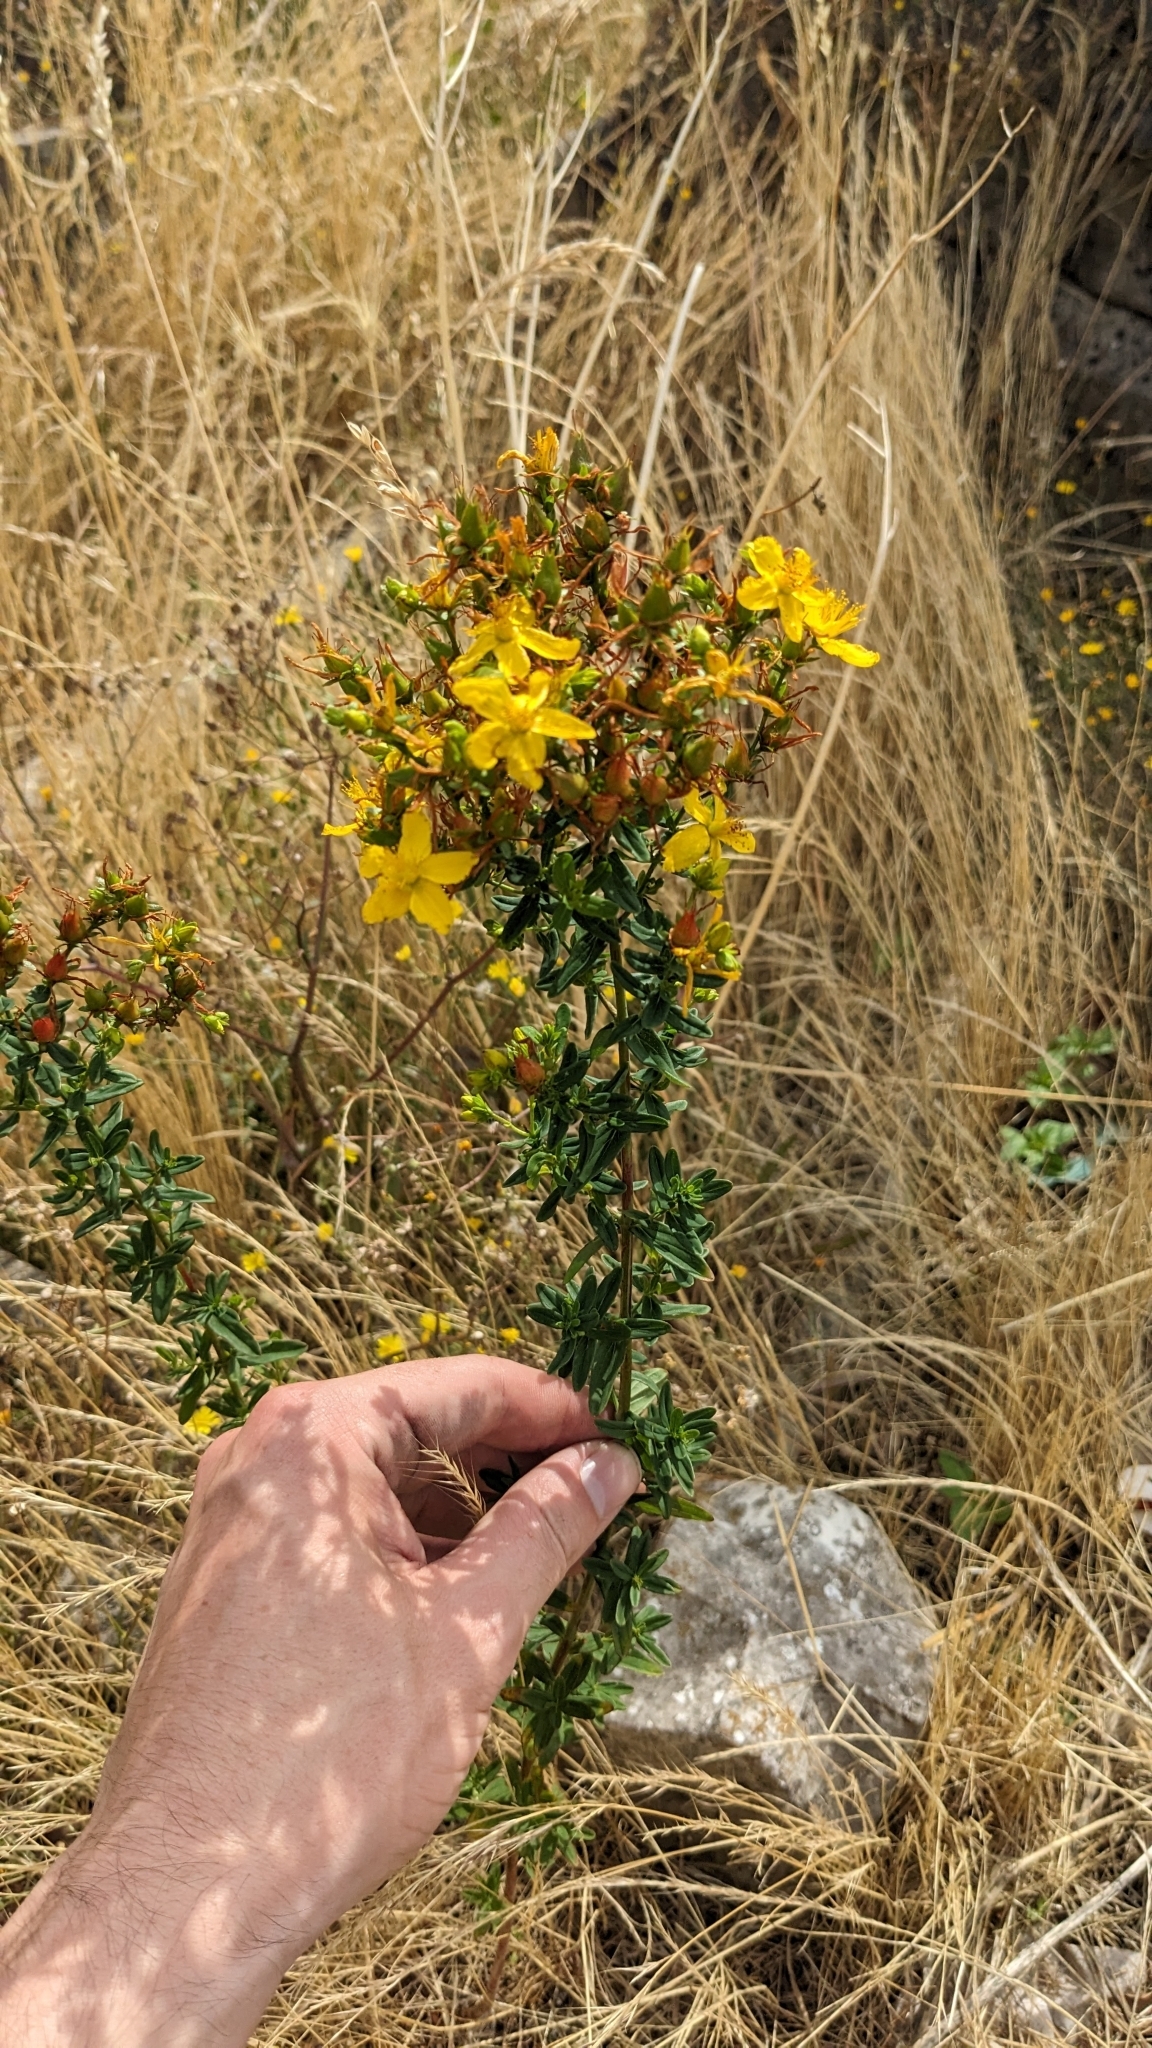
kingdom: Plantae
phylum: Tracheophyta
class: Magnoliopsida
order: Malpighiales
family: Hypericaceae
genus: Hypericum
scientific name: Hypericum perforatum
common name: Common st. johnswort
